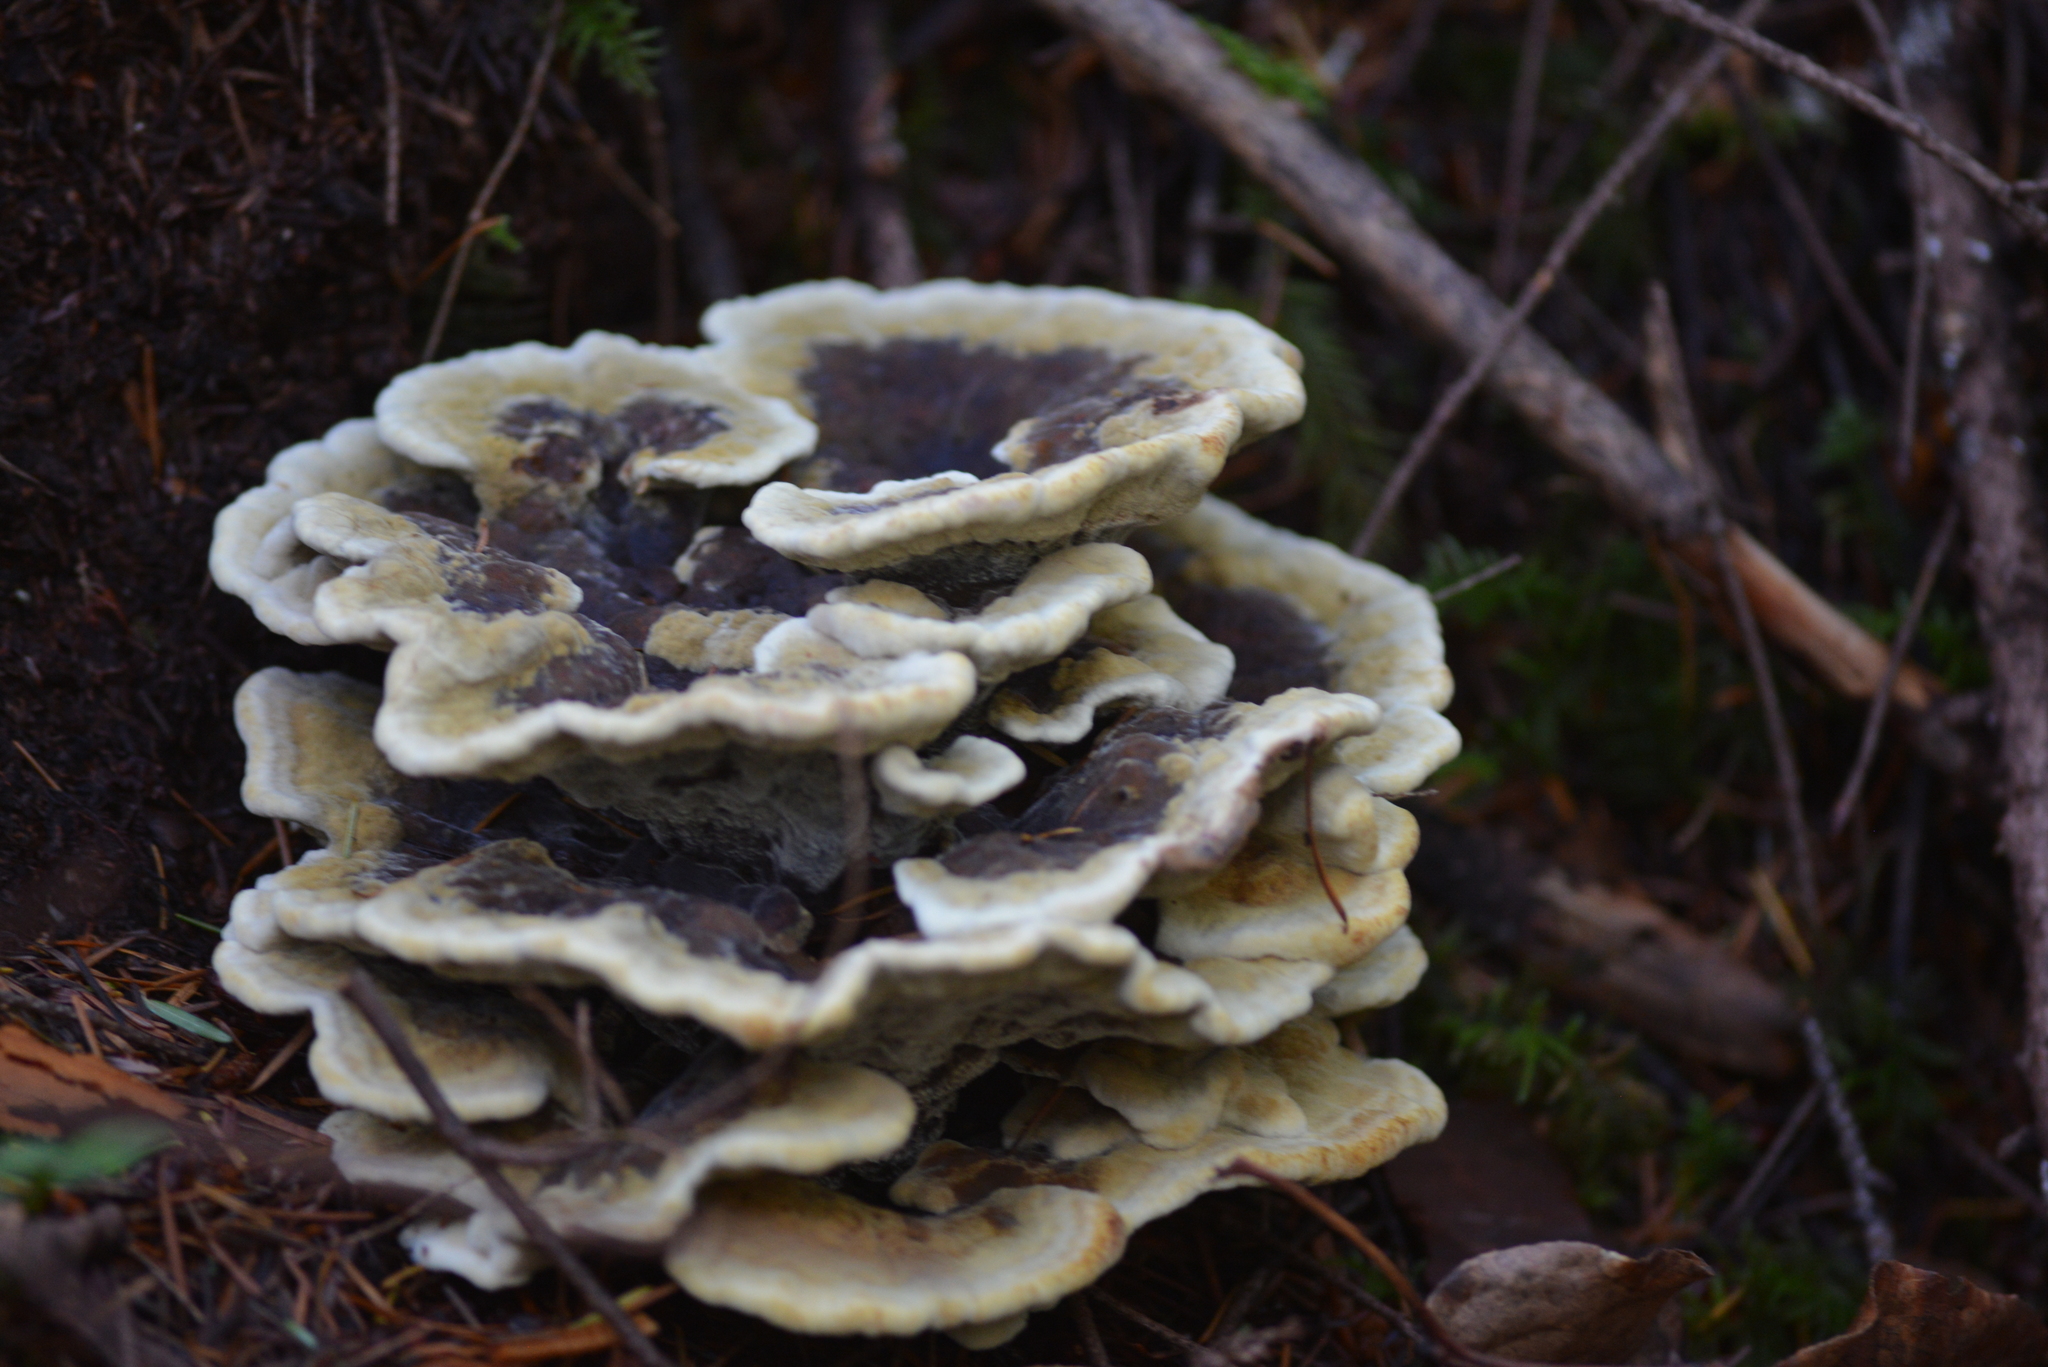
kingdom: Fungi
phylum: Basidiomycota
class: Agaricomycetes
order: Polyporales
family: Laetiporaceae
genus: Phaeolus
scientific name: Phaeolus schweinitzii
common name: Dyer's mazegill
